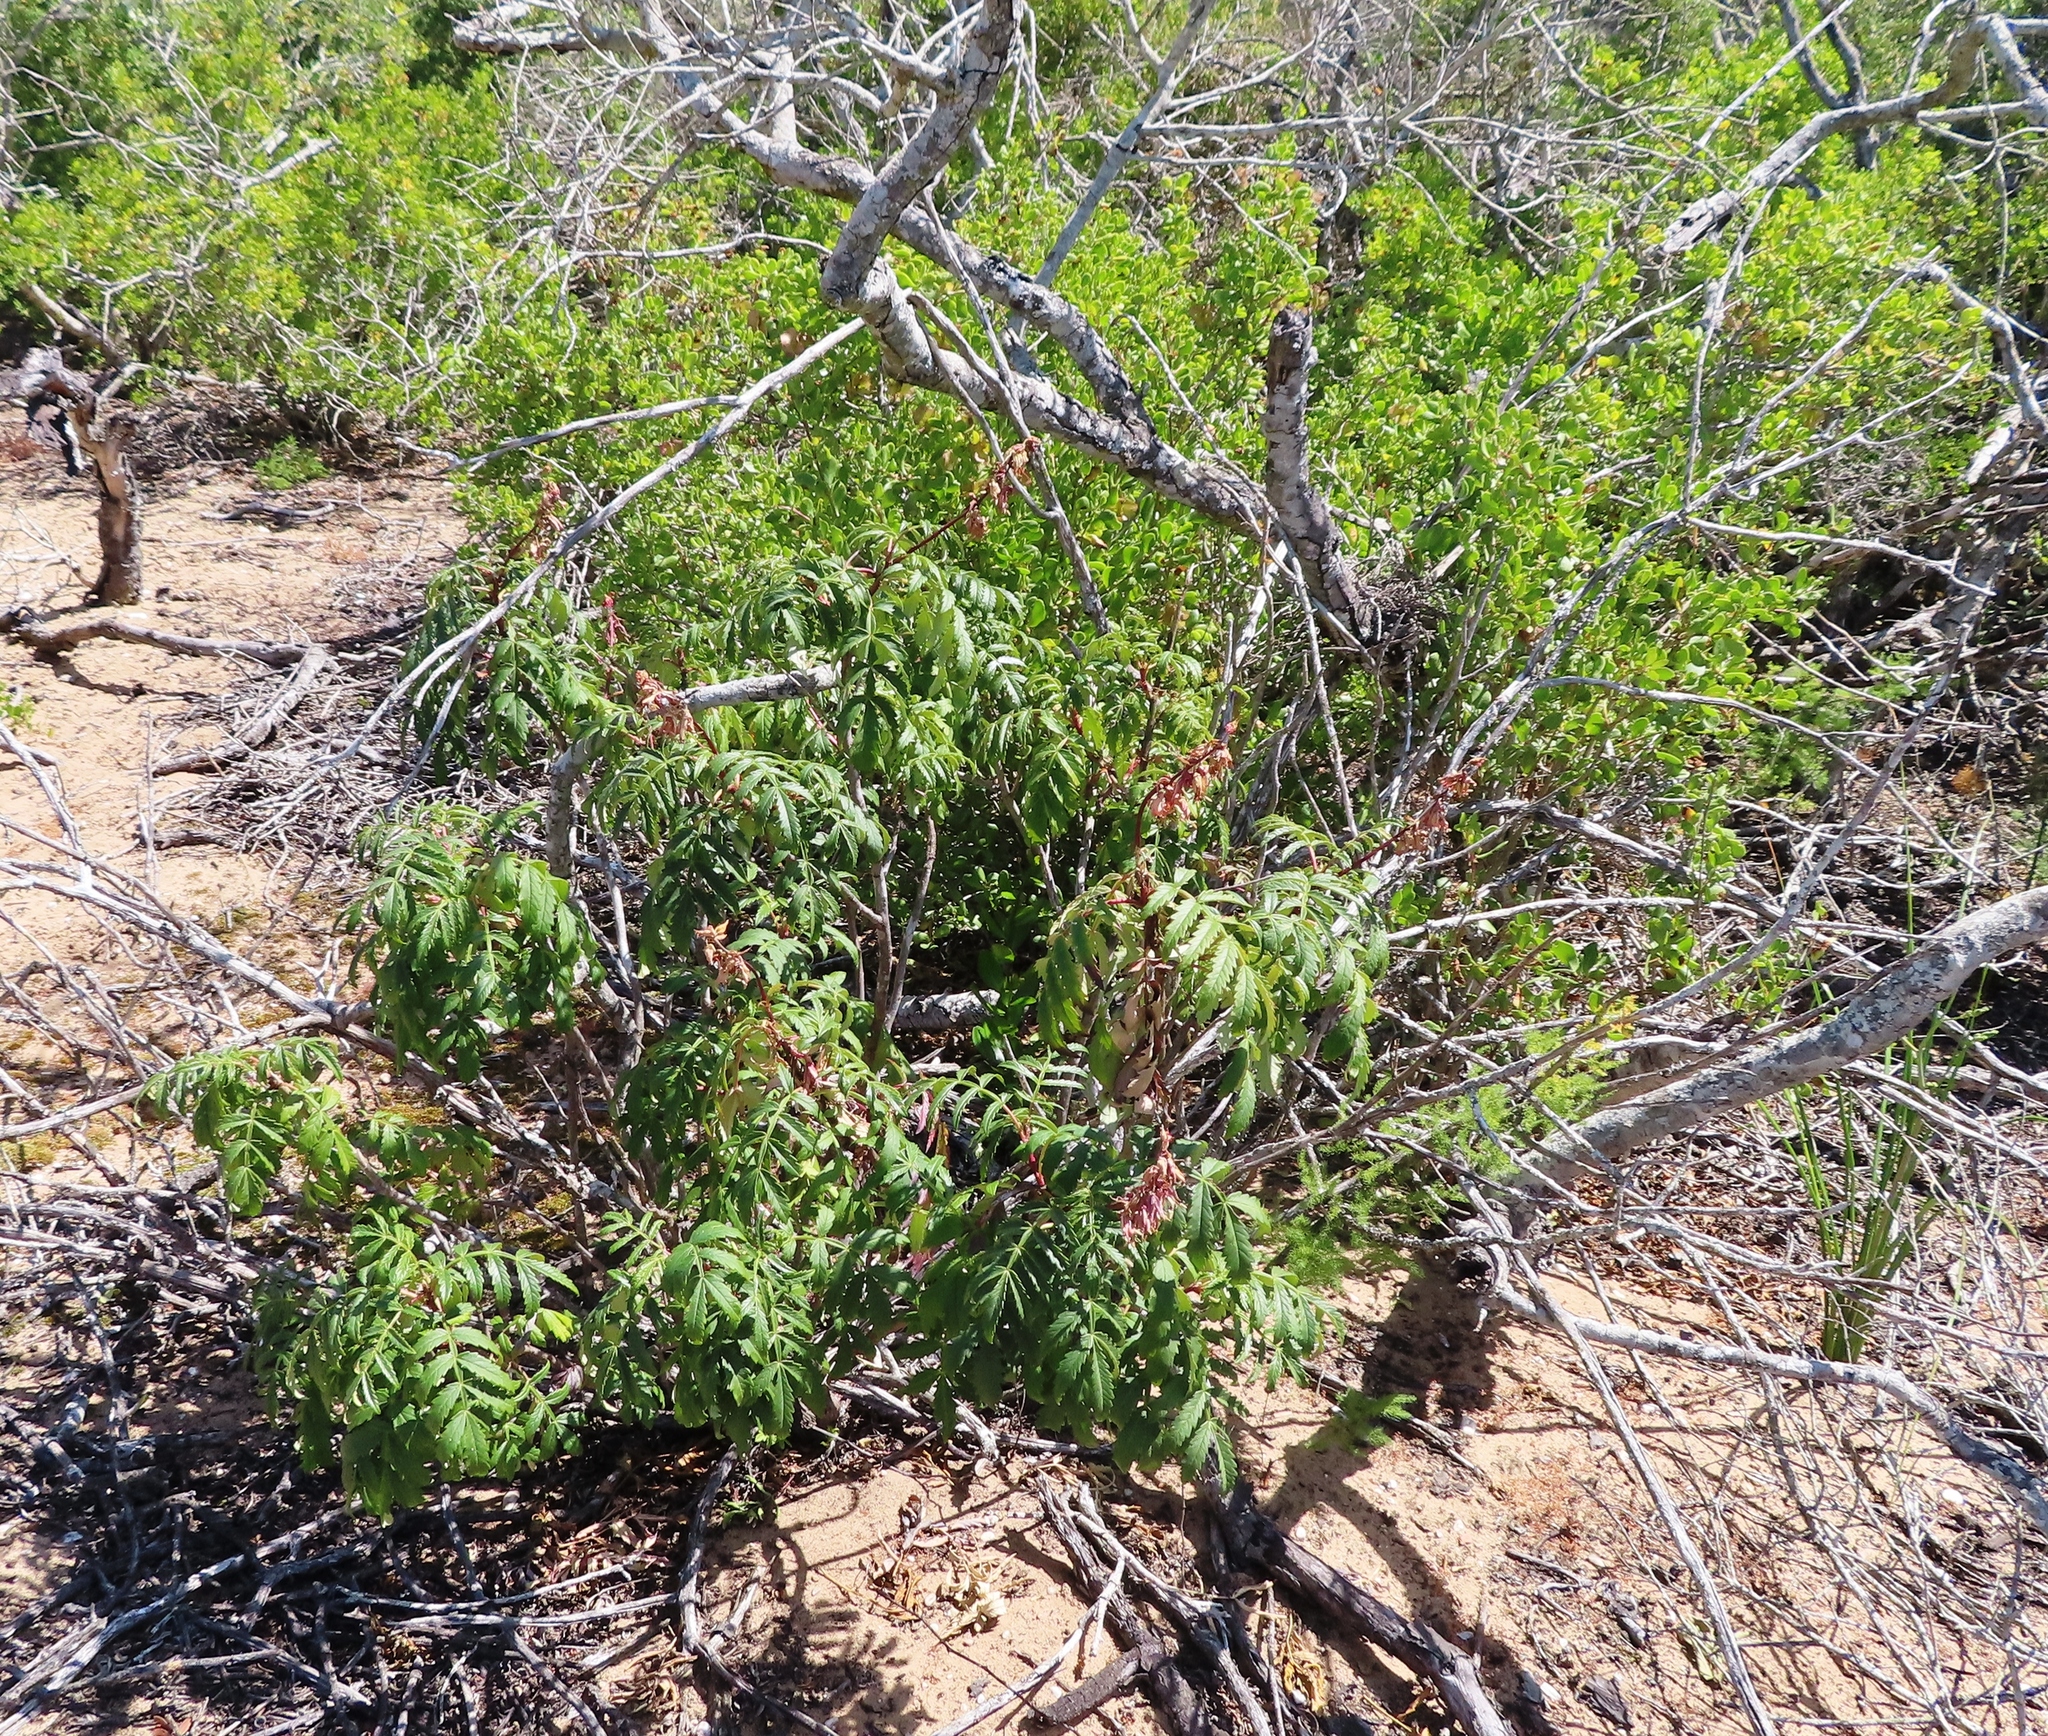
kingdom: Plantae
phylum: Tracheophyta
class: Magnoliopsida
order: Geraniales
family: Melianthaceae
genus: Melianthus
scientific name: Melianthus comosus
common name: Touch-me-not
